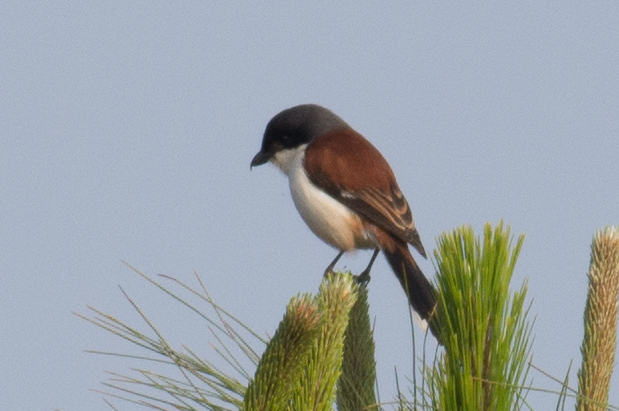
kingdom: Animalia
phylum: Chordata
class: Aves
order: Passeriformes
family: Laniidae
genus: Lanius
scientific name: Lanius collurioides
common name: Burmese shrike
